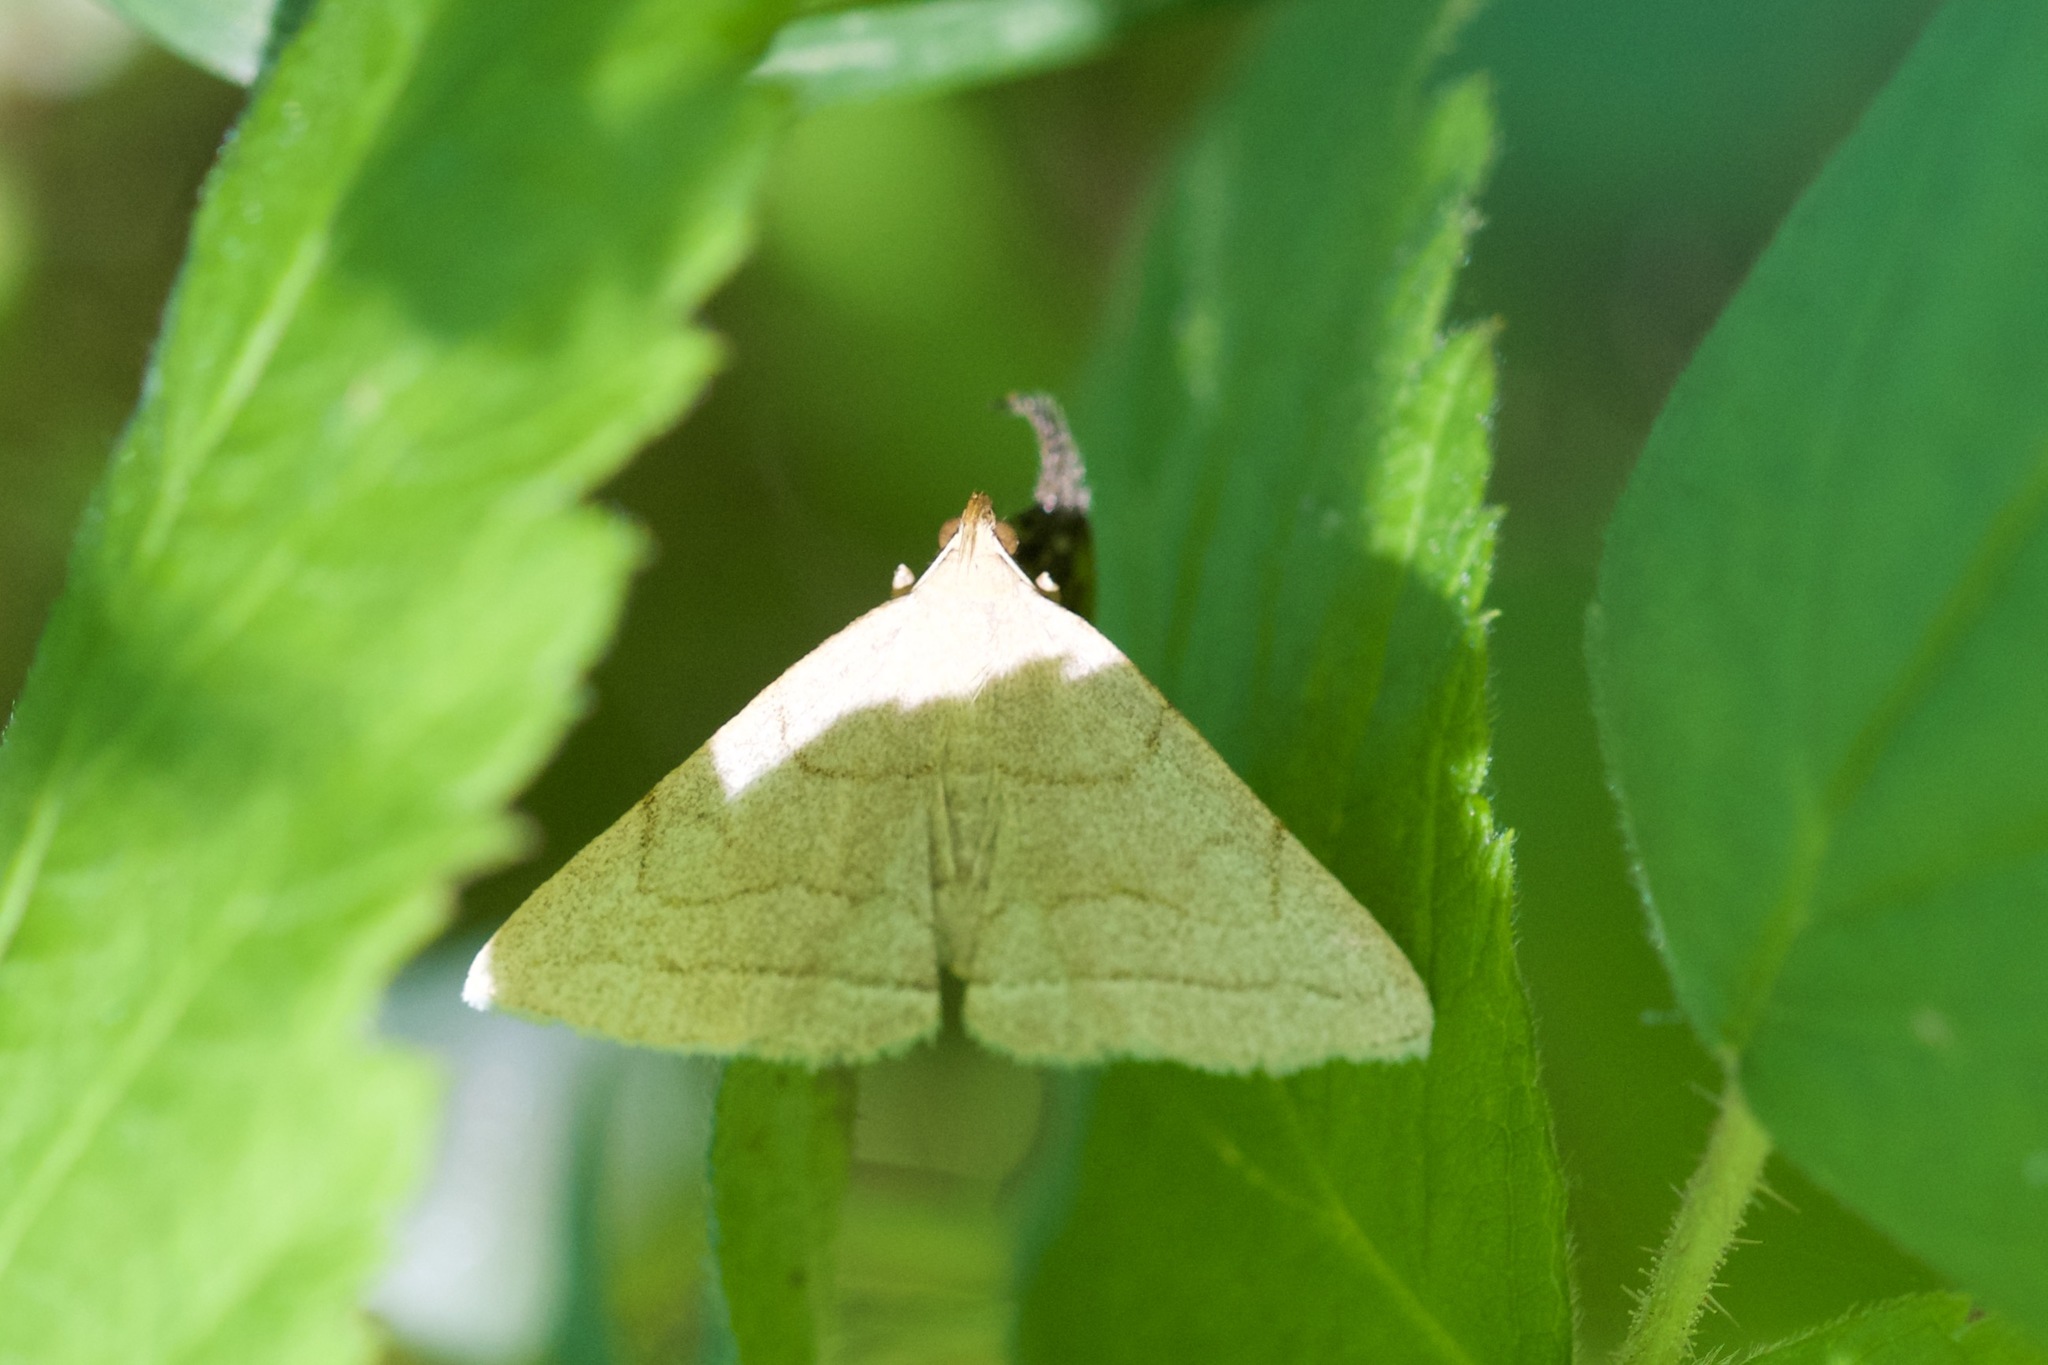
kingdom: Animalia
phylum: Arthropoda
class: Insecta
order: Lepidoptera
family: Erebidae
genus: Zanclognatha
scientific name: Zanclognatha pedipilalis
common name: Grayish fan-foot
